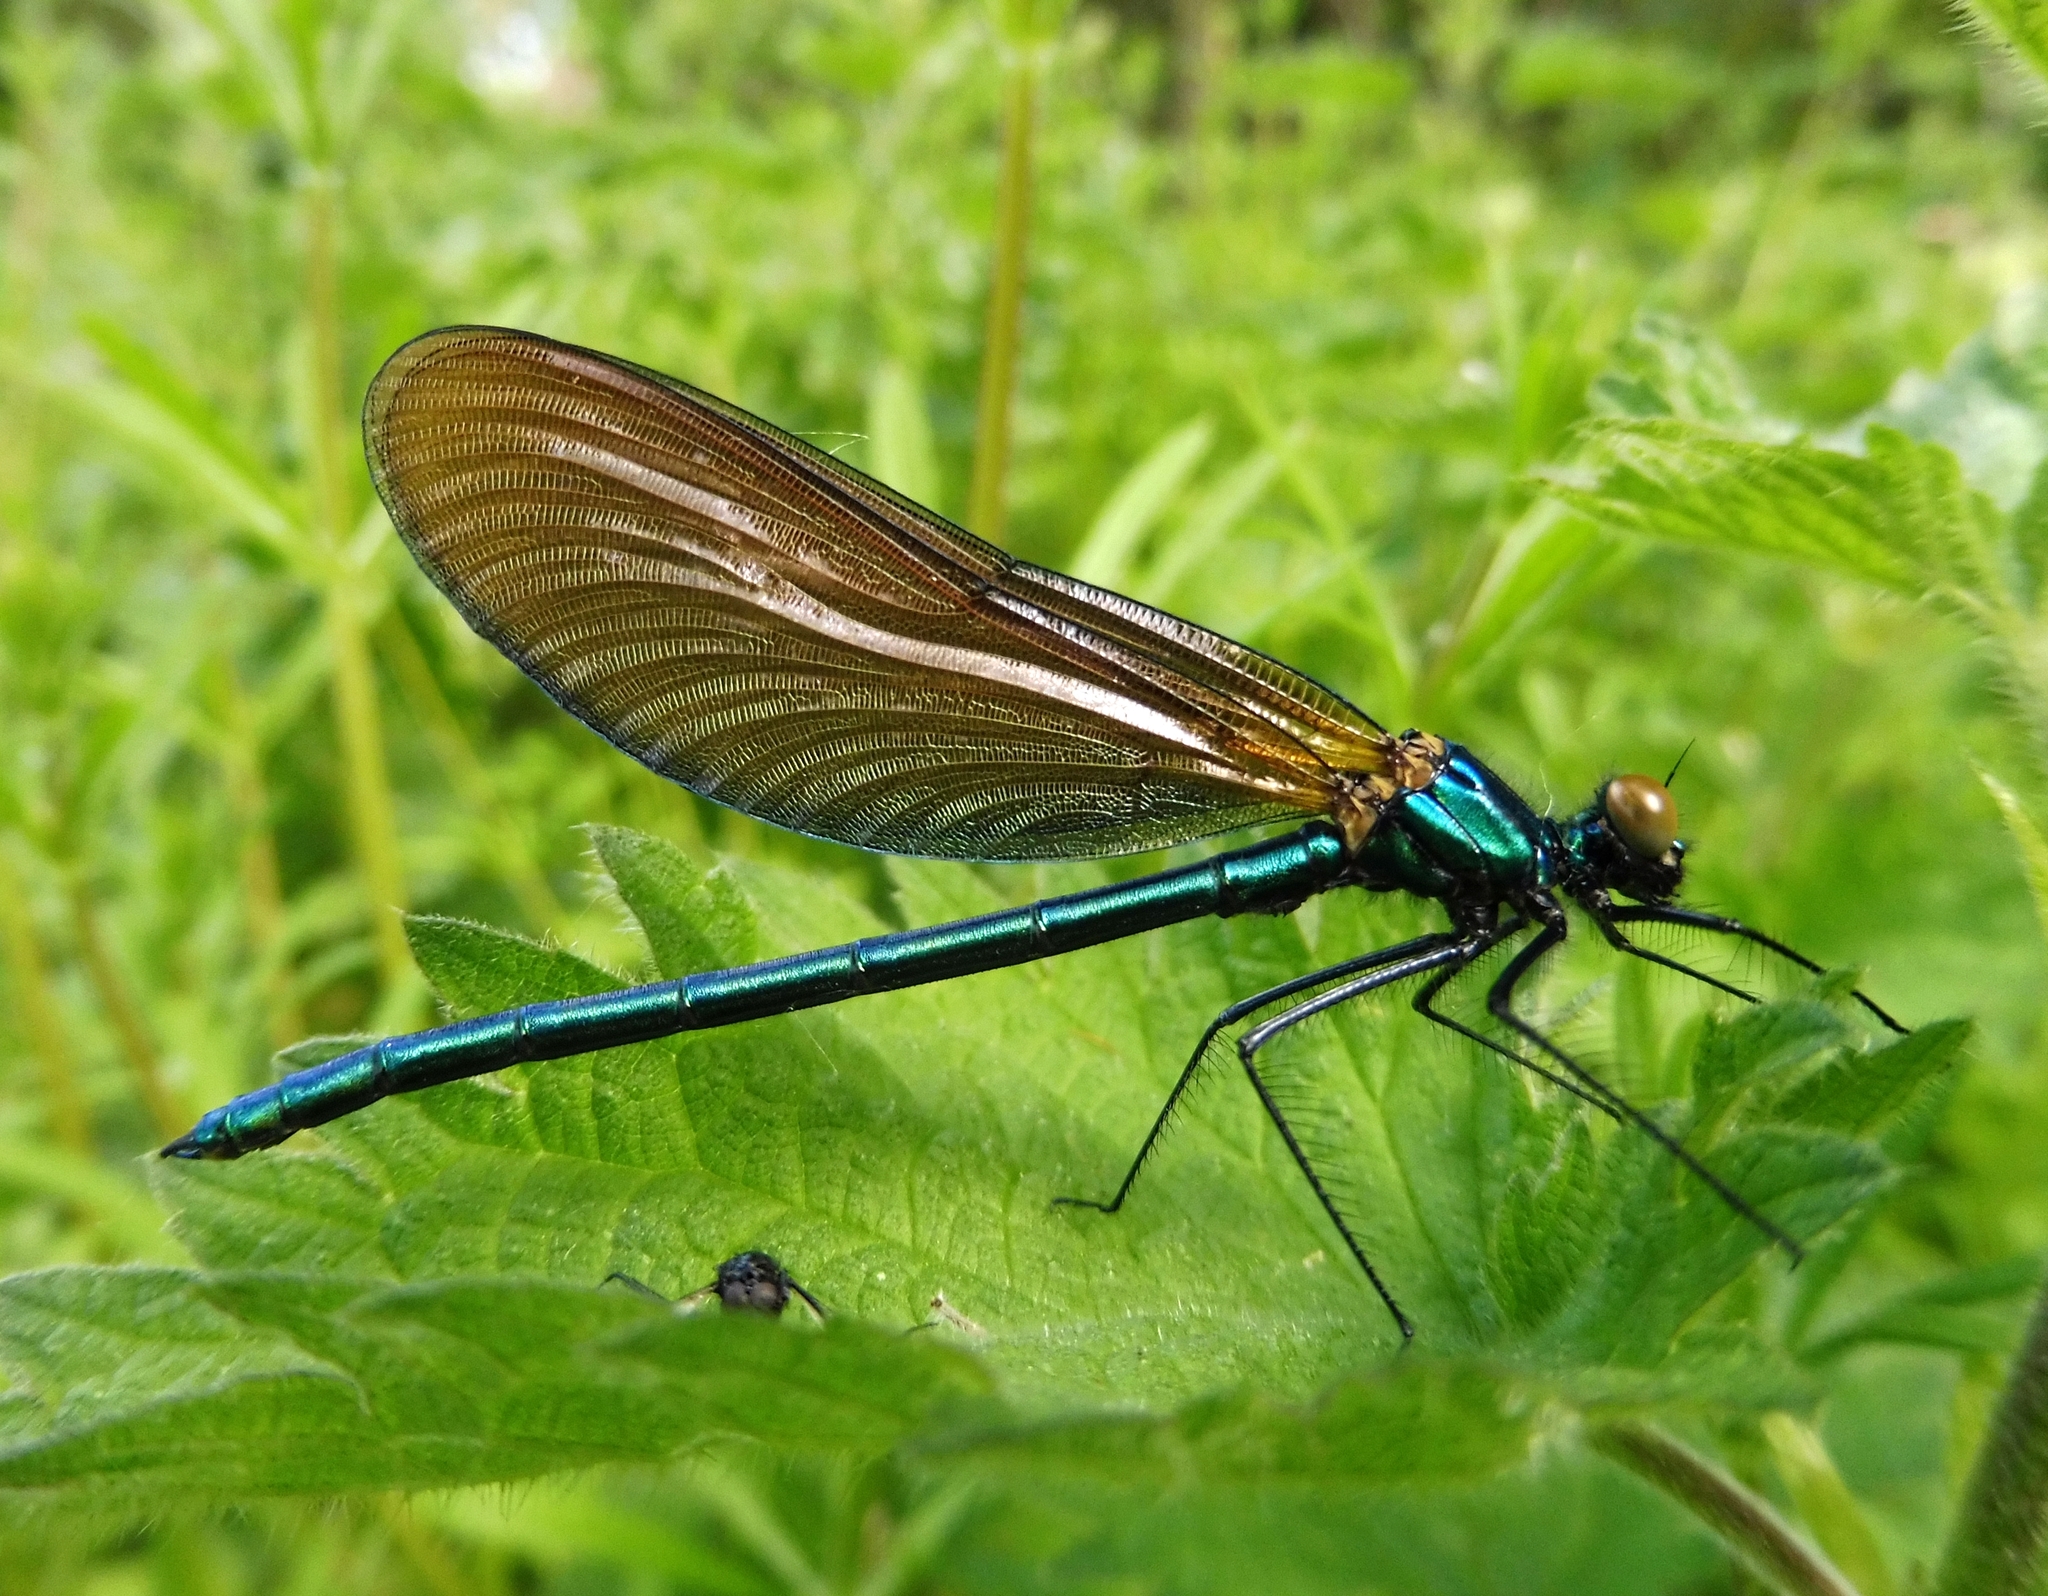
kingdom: Animalia
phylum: Arthropoda
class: Insecta
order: Odonata
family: Calopterygidae
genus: Calopteryx
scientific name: Calopteryx virgo
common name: Beautiful demoiselle
